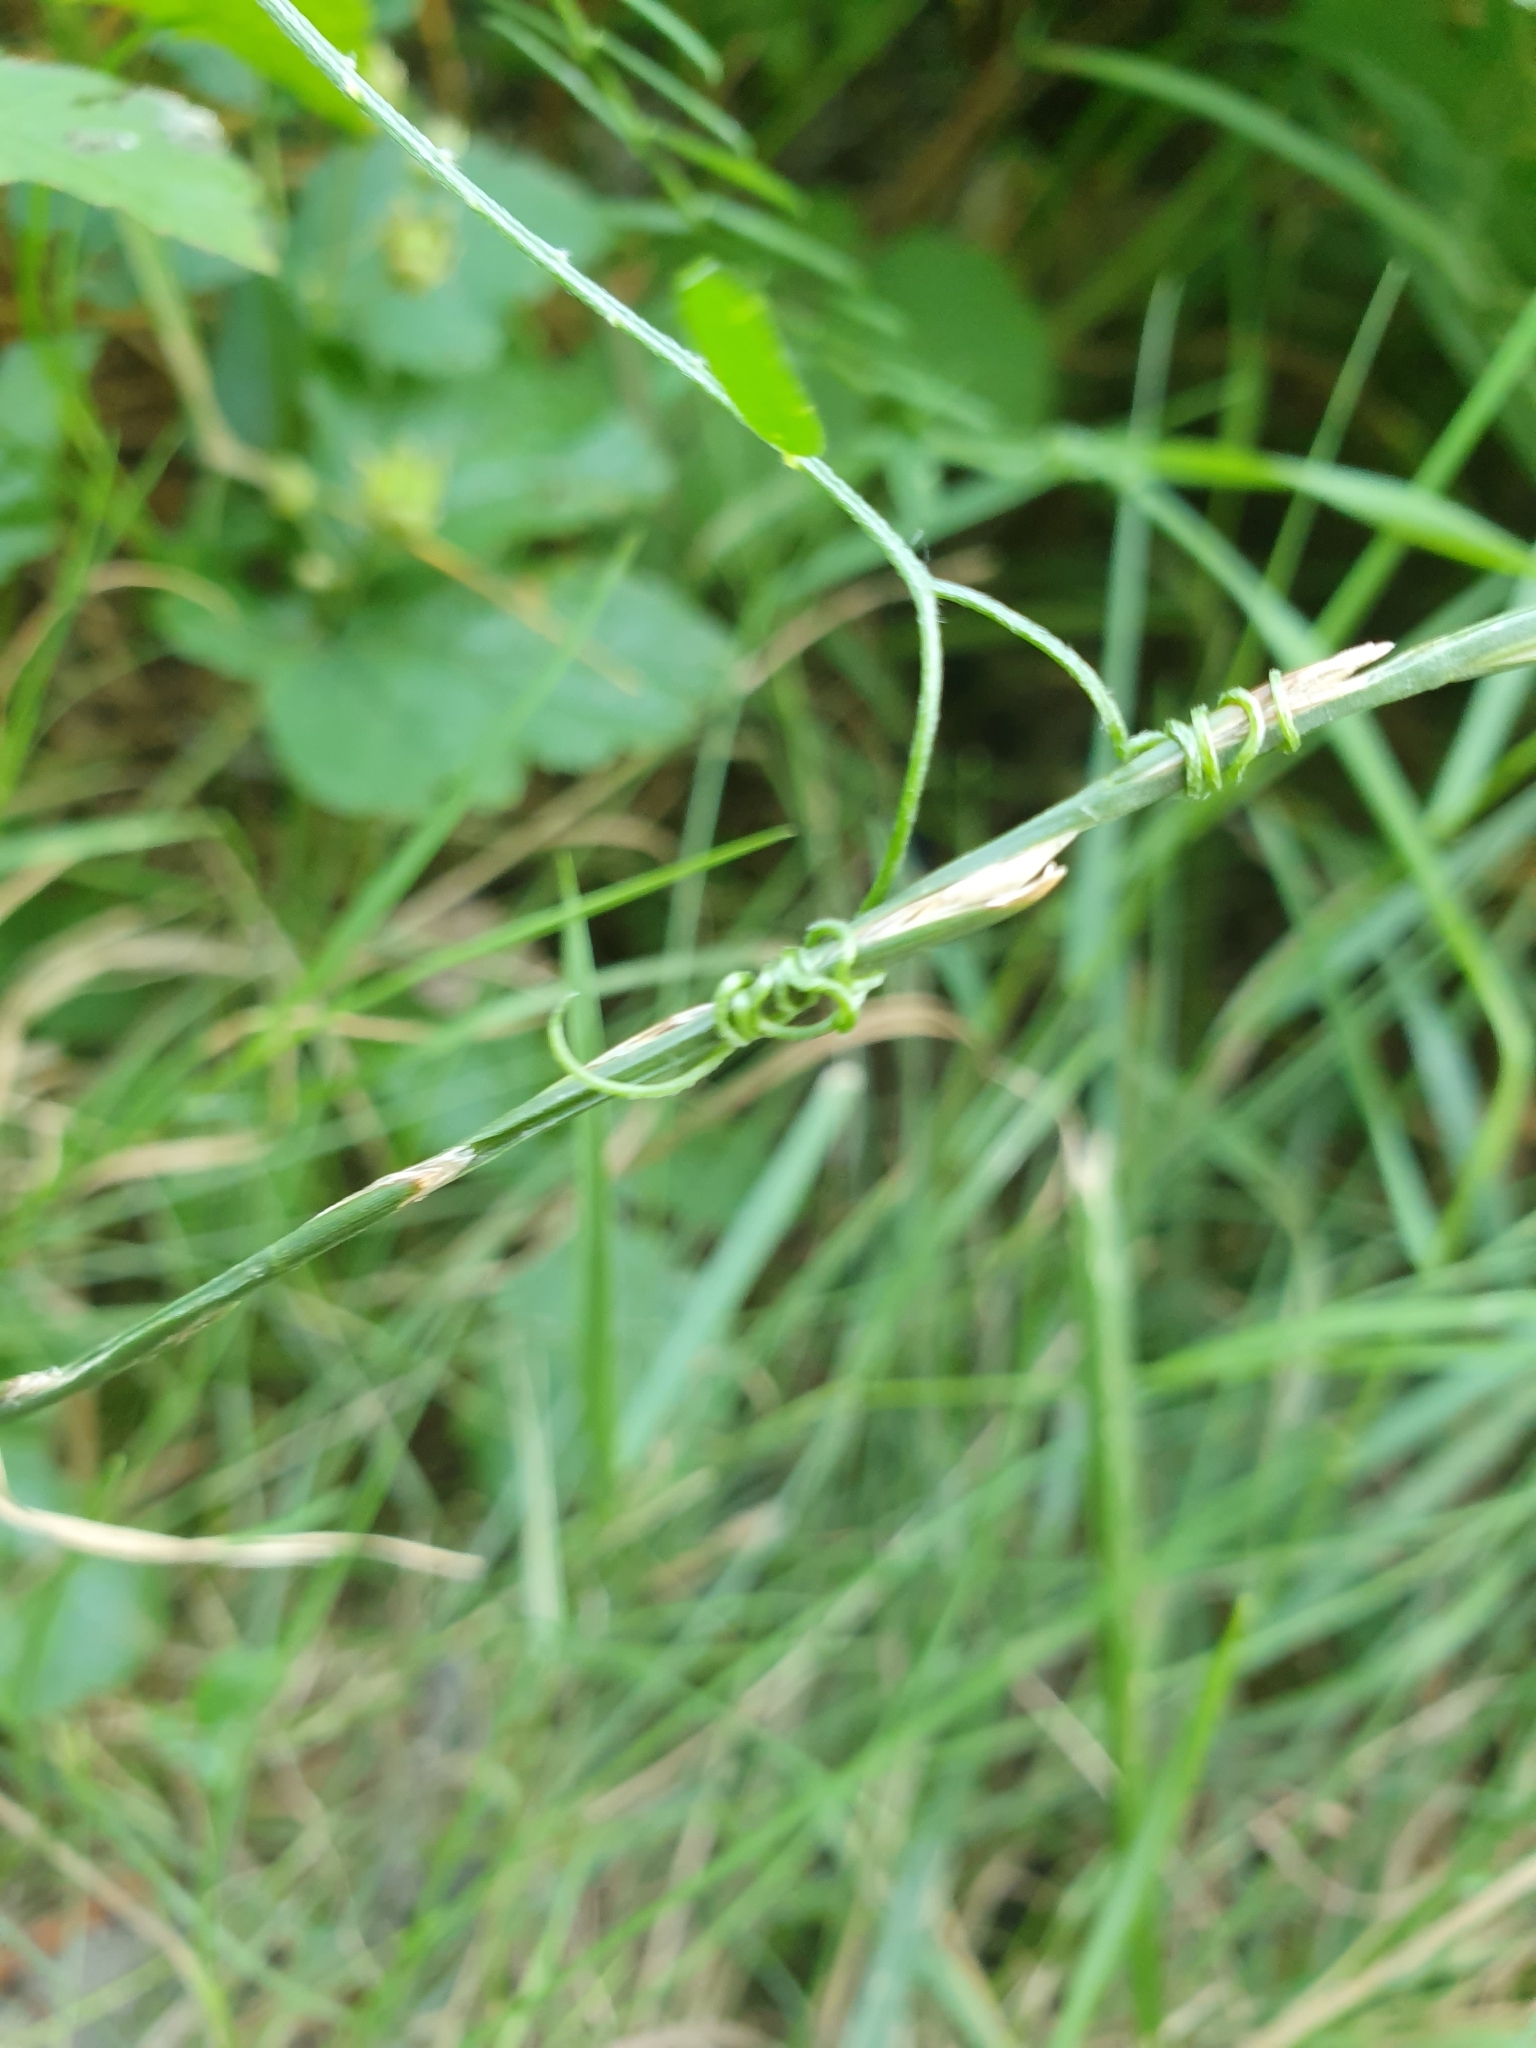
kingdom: Plantae
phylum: Tracheophyta
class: Magnoliopsida
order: Fabales
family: Fabaceae
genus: Vicia
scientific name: Vicia cracca
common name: Bird vetch
